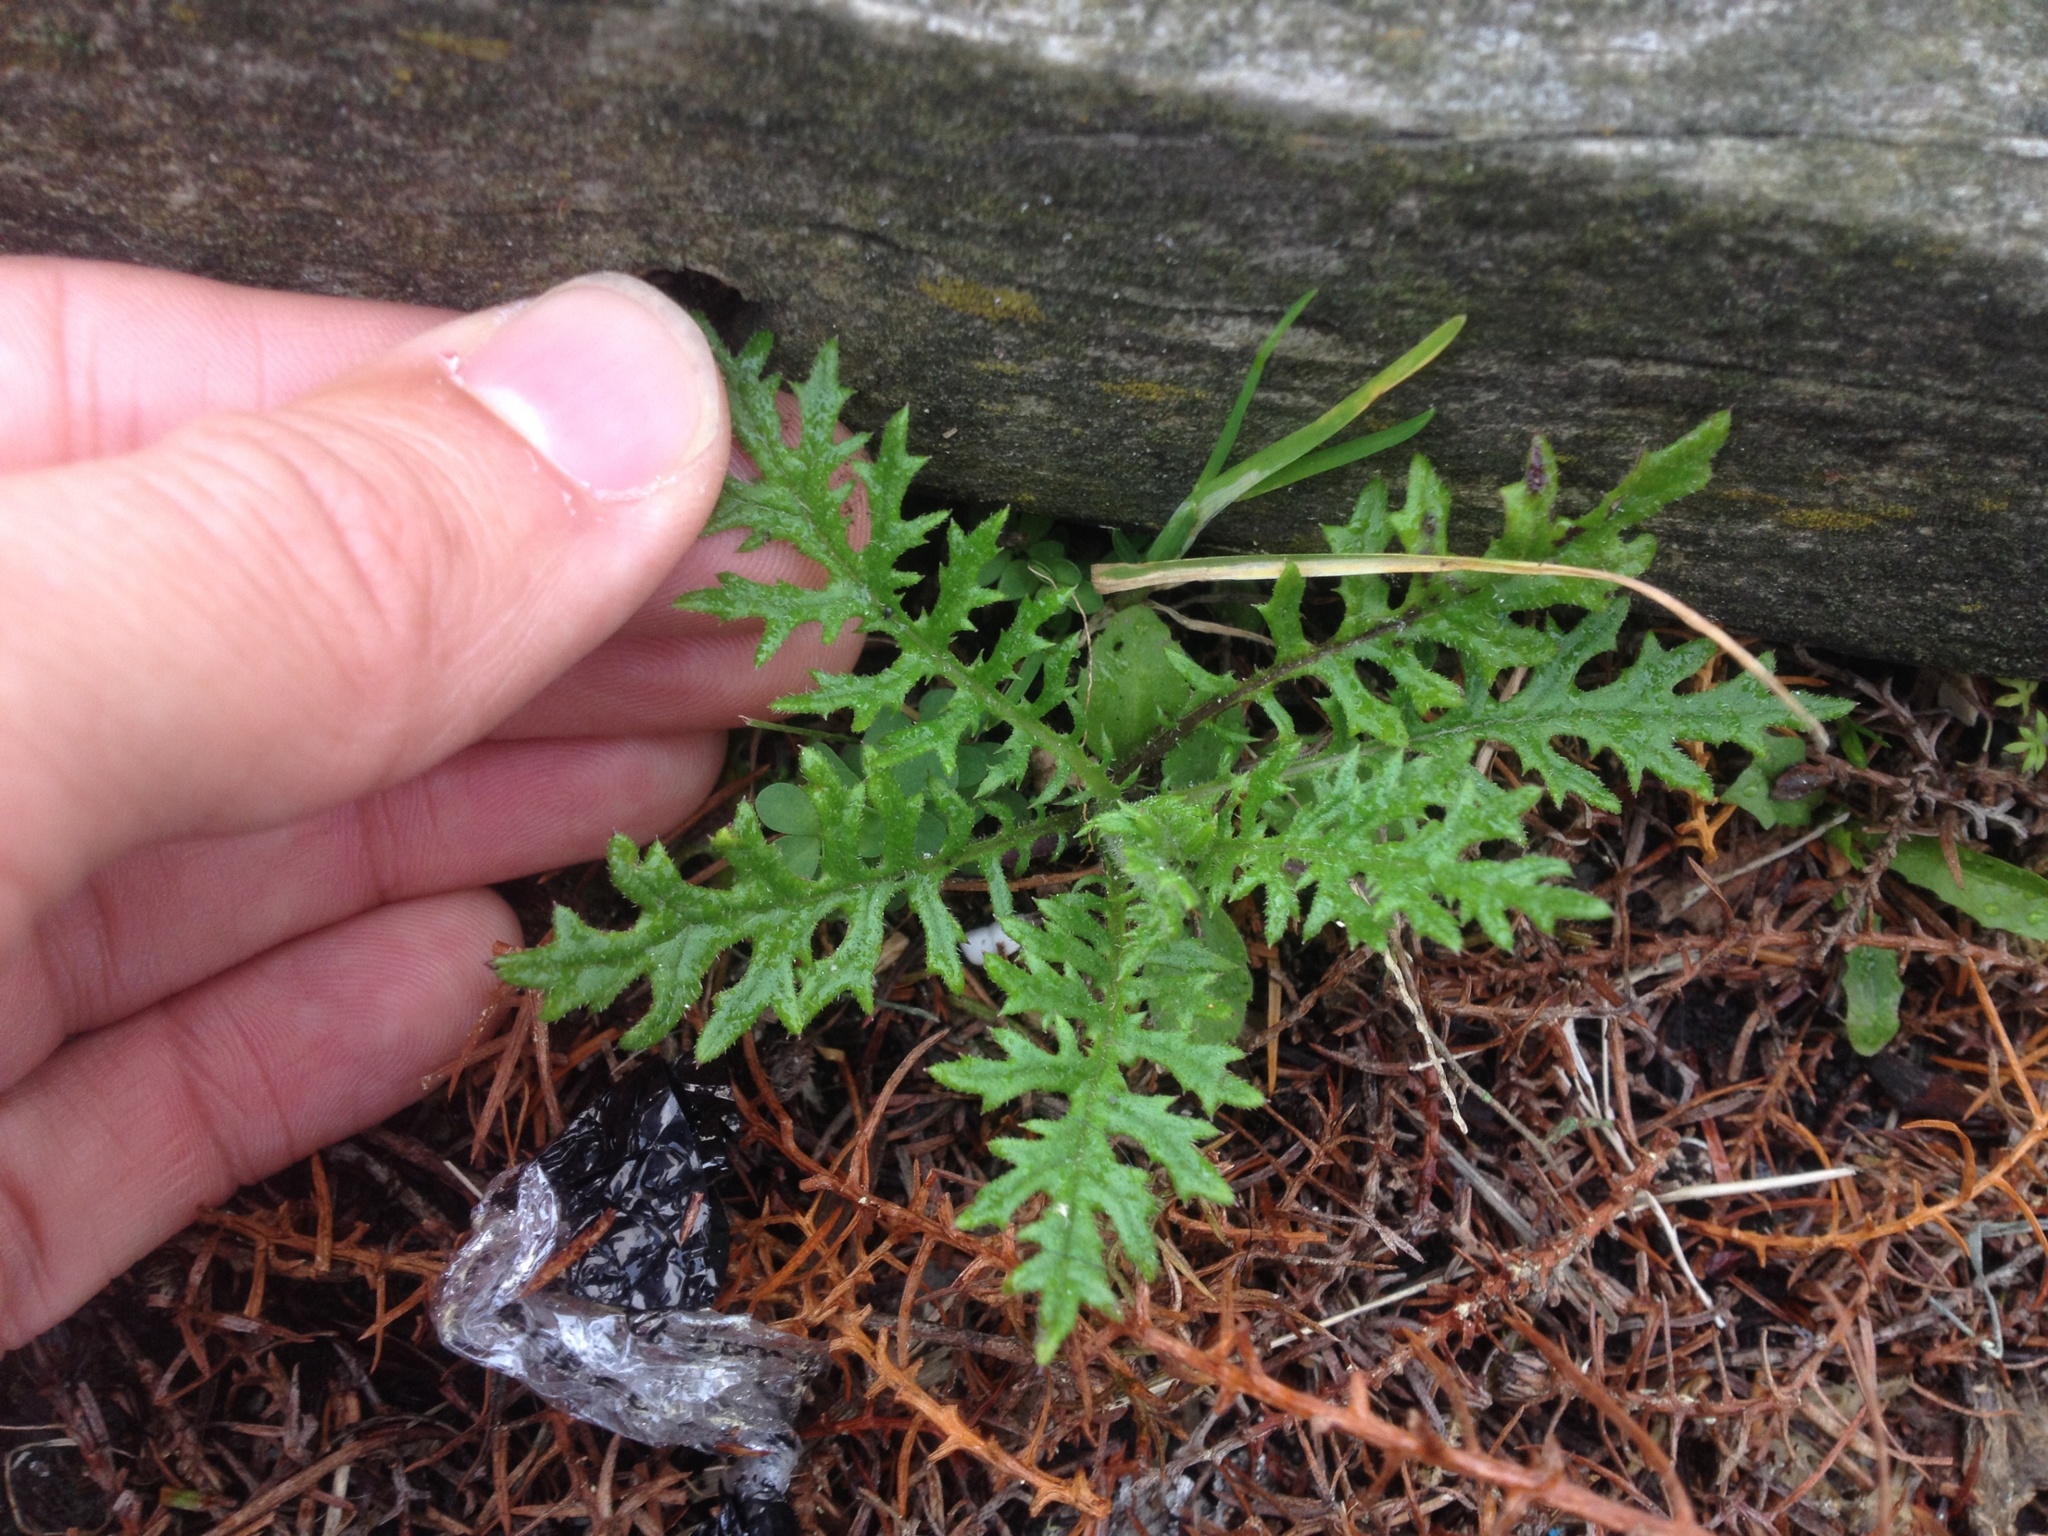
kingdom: Plantae
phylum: Tracheophyta
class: Magnoliopsida
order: Asterales
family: Asteraceae
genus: Senecio
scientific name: Senecio bipinnatisectus
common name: Australian fireweed
